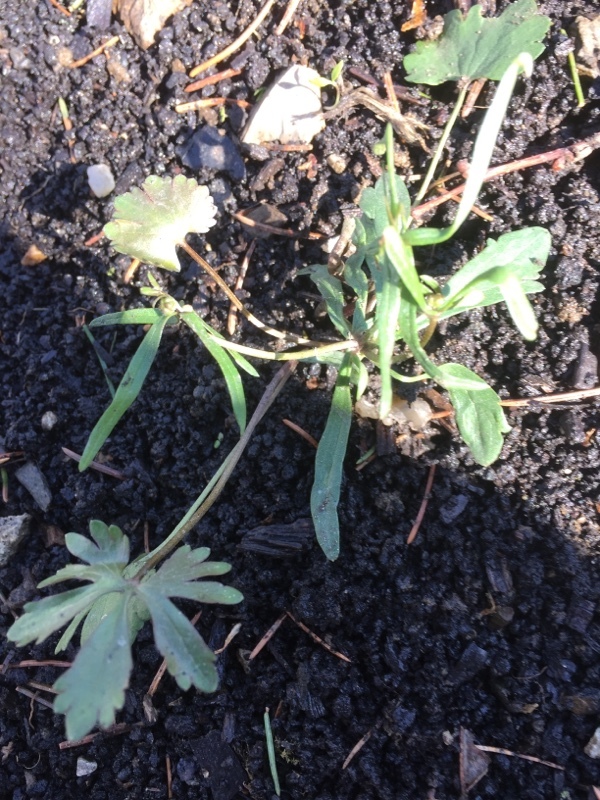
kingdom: Plantae
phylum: Tracheophyta
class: Magnoliopsida
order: Ranunculales
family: Ranunculaceae
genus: Ranunculus
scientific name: Ranunculus auricomus
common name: Goldilocks buttercup
